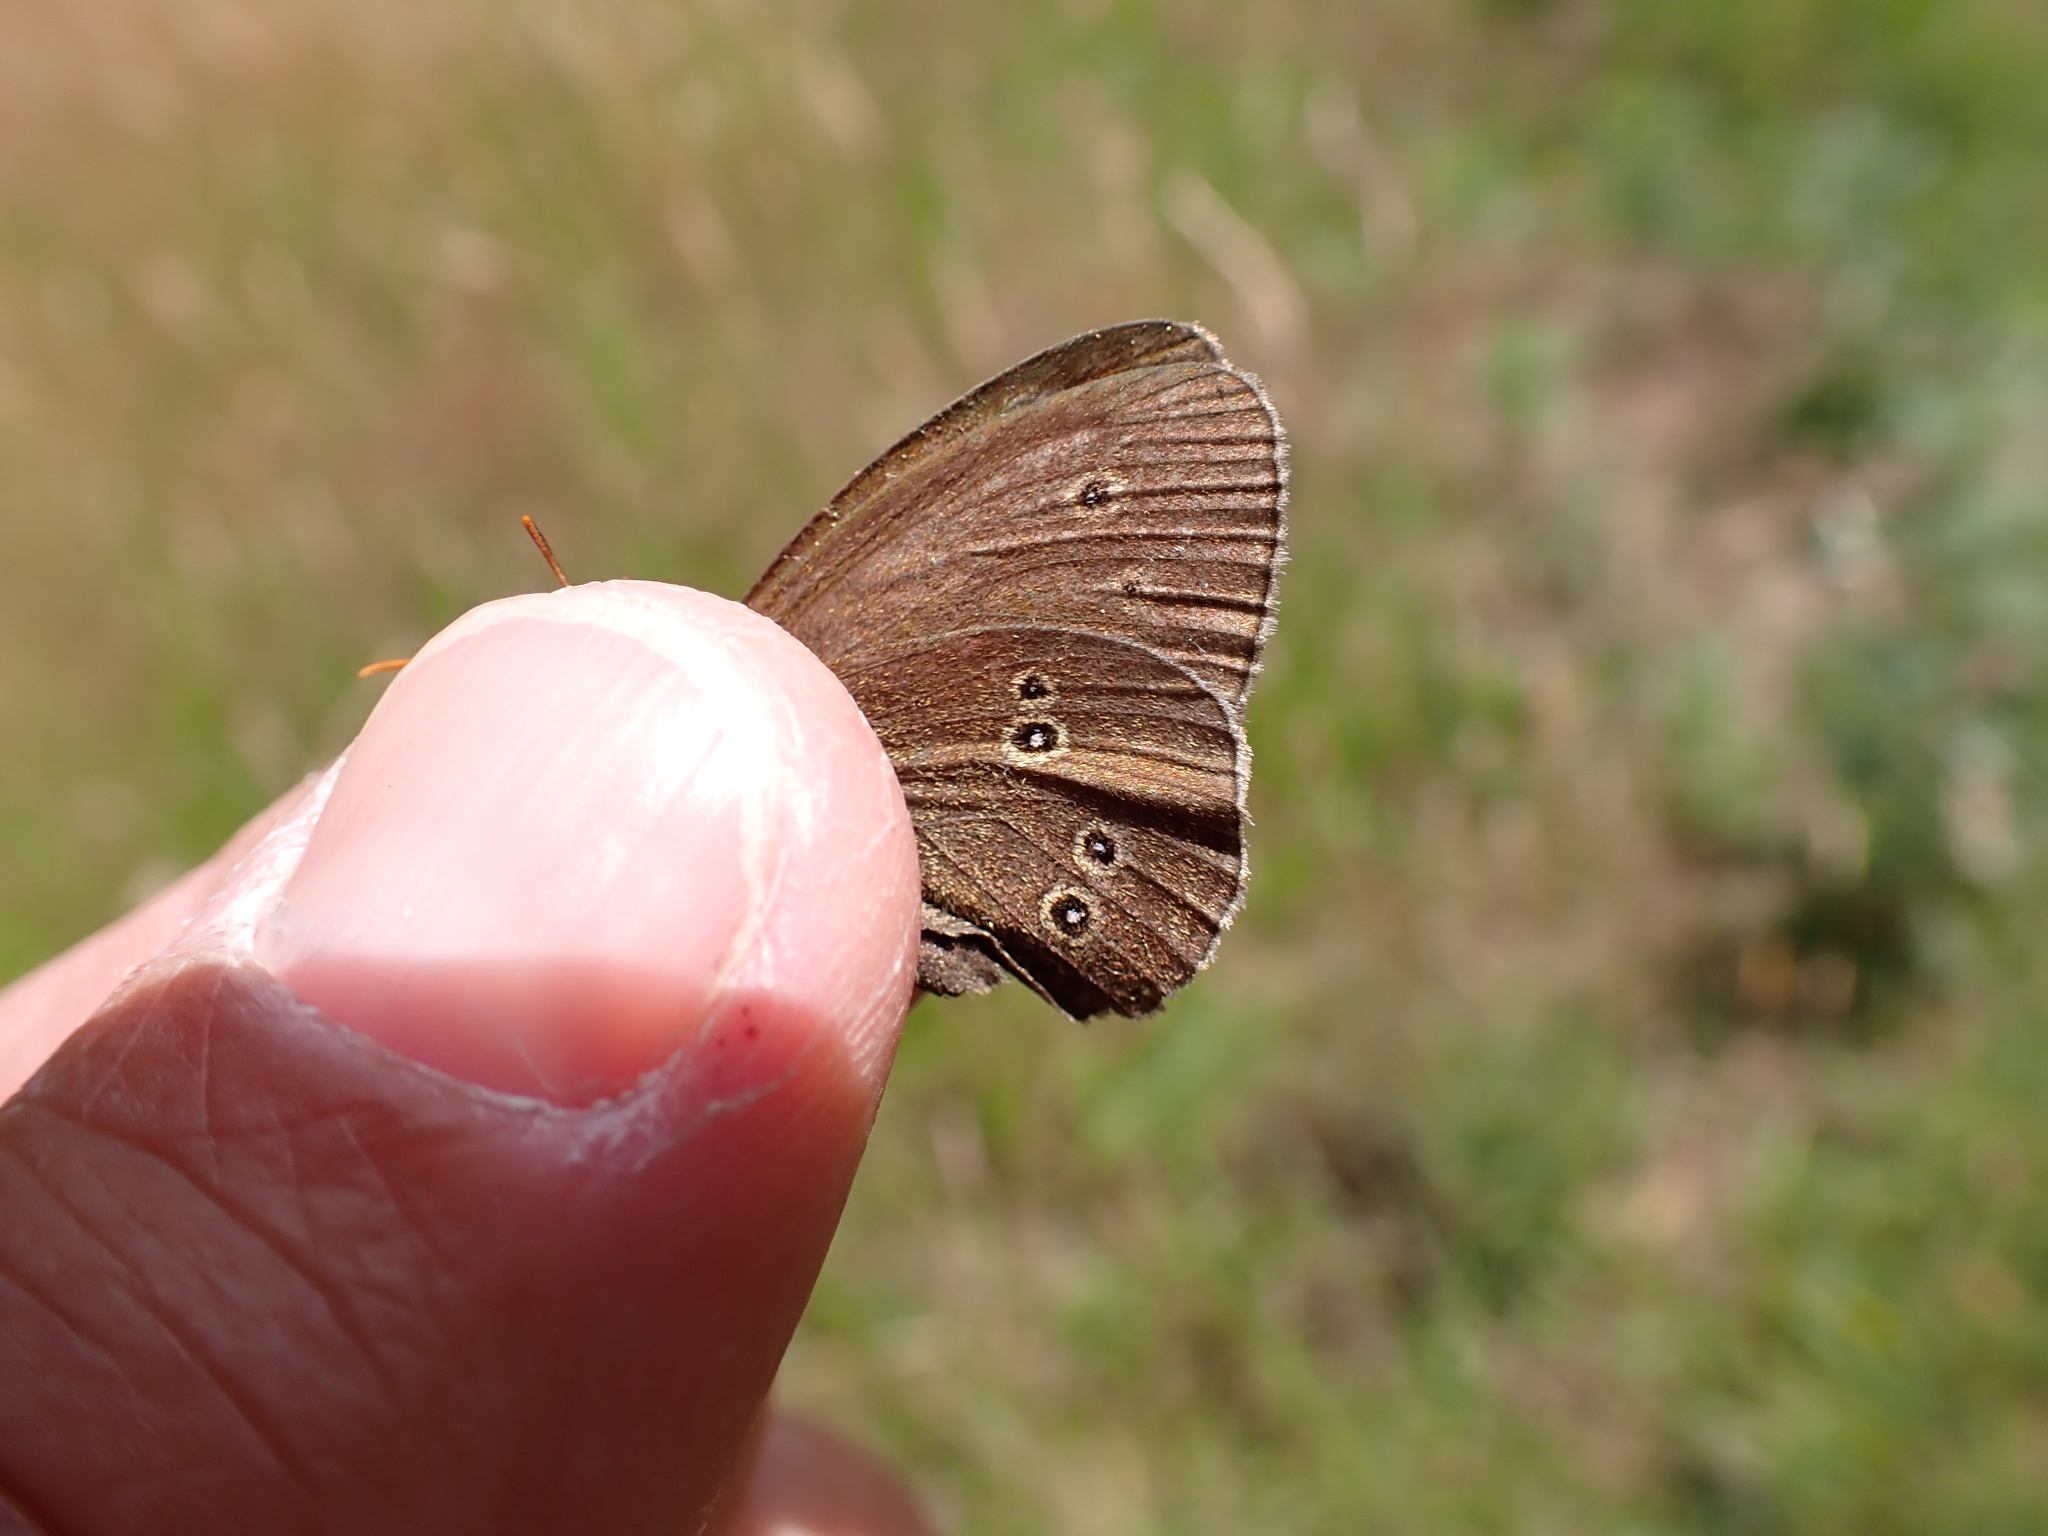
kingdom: Animalia
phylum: Arthropoda
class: Insecta
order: Lepidoptera
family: Nymphalidae
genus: Aphantopus
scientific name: Aphantopus hyperantus
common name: Ringlet
